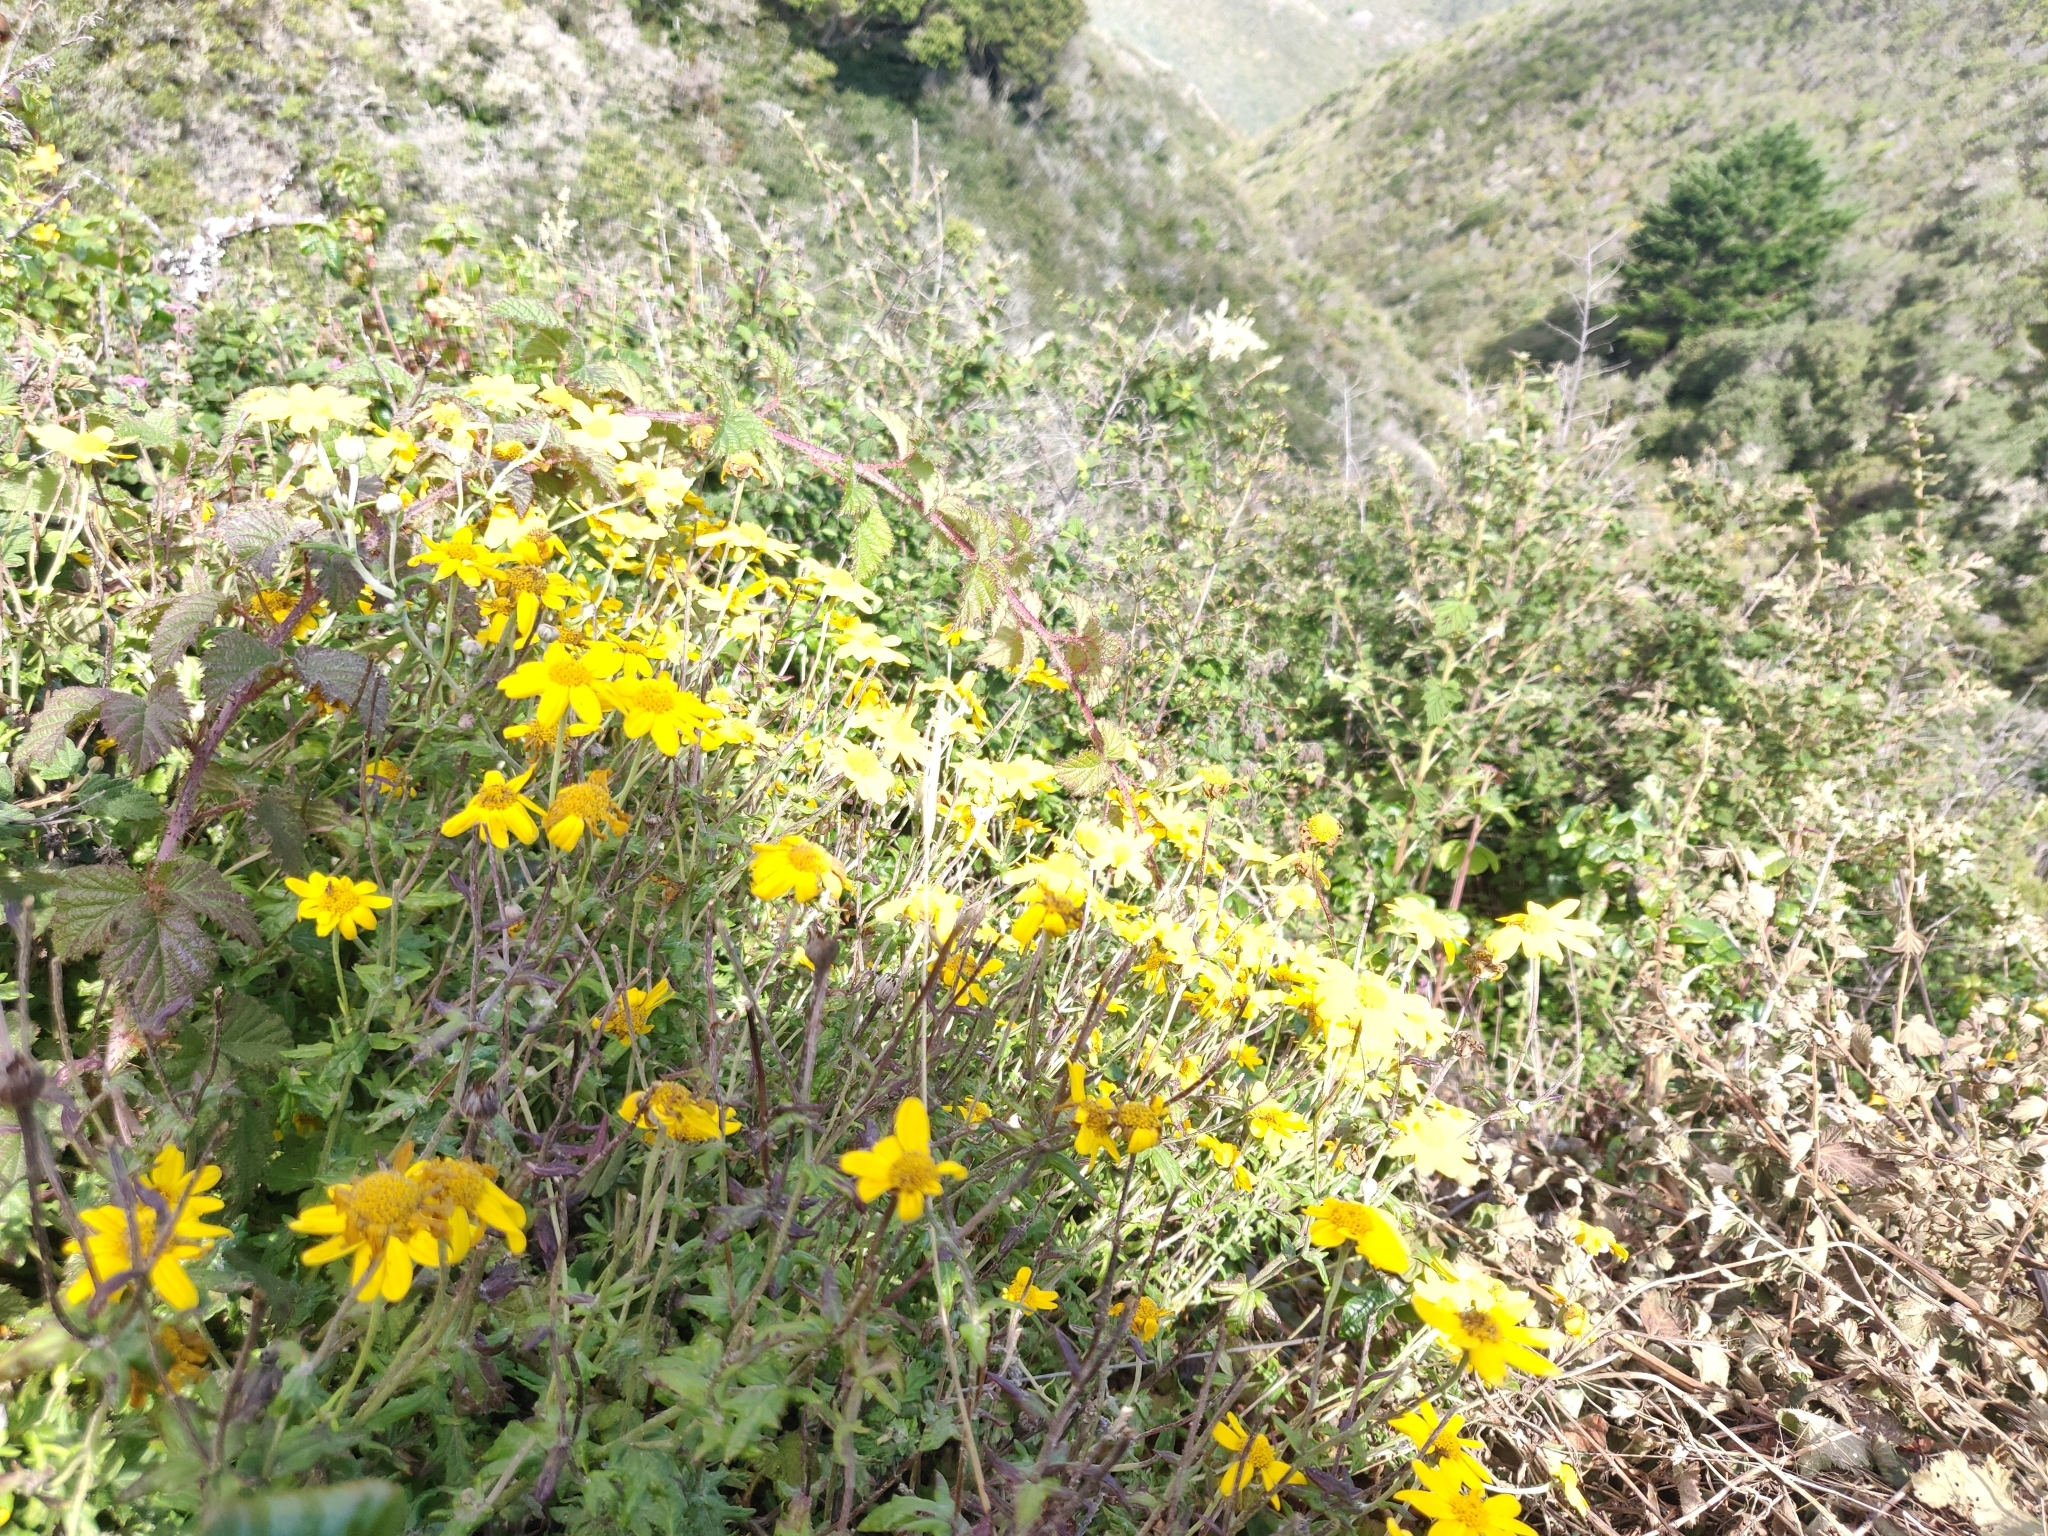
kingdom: Plantae
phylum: Tracheophyta
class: Magnoliopsida
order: Asterales
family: Asteraceae
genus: Eriophyllum
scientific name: Eriophyllum lanatum
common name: Common woolly-sunflower
